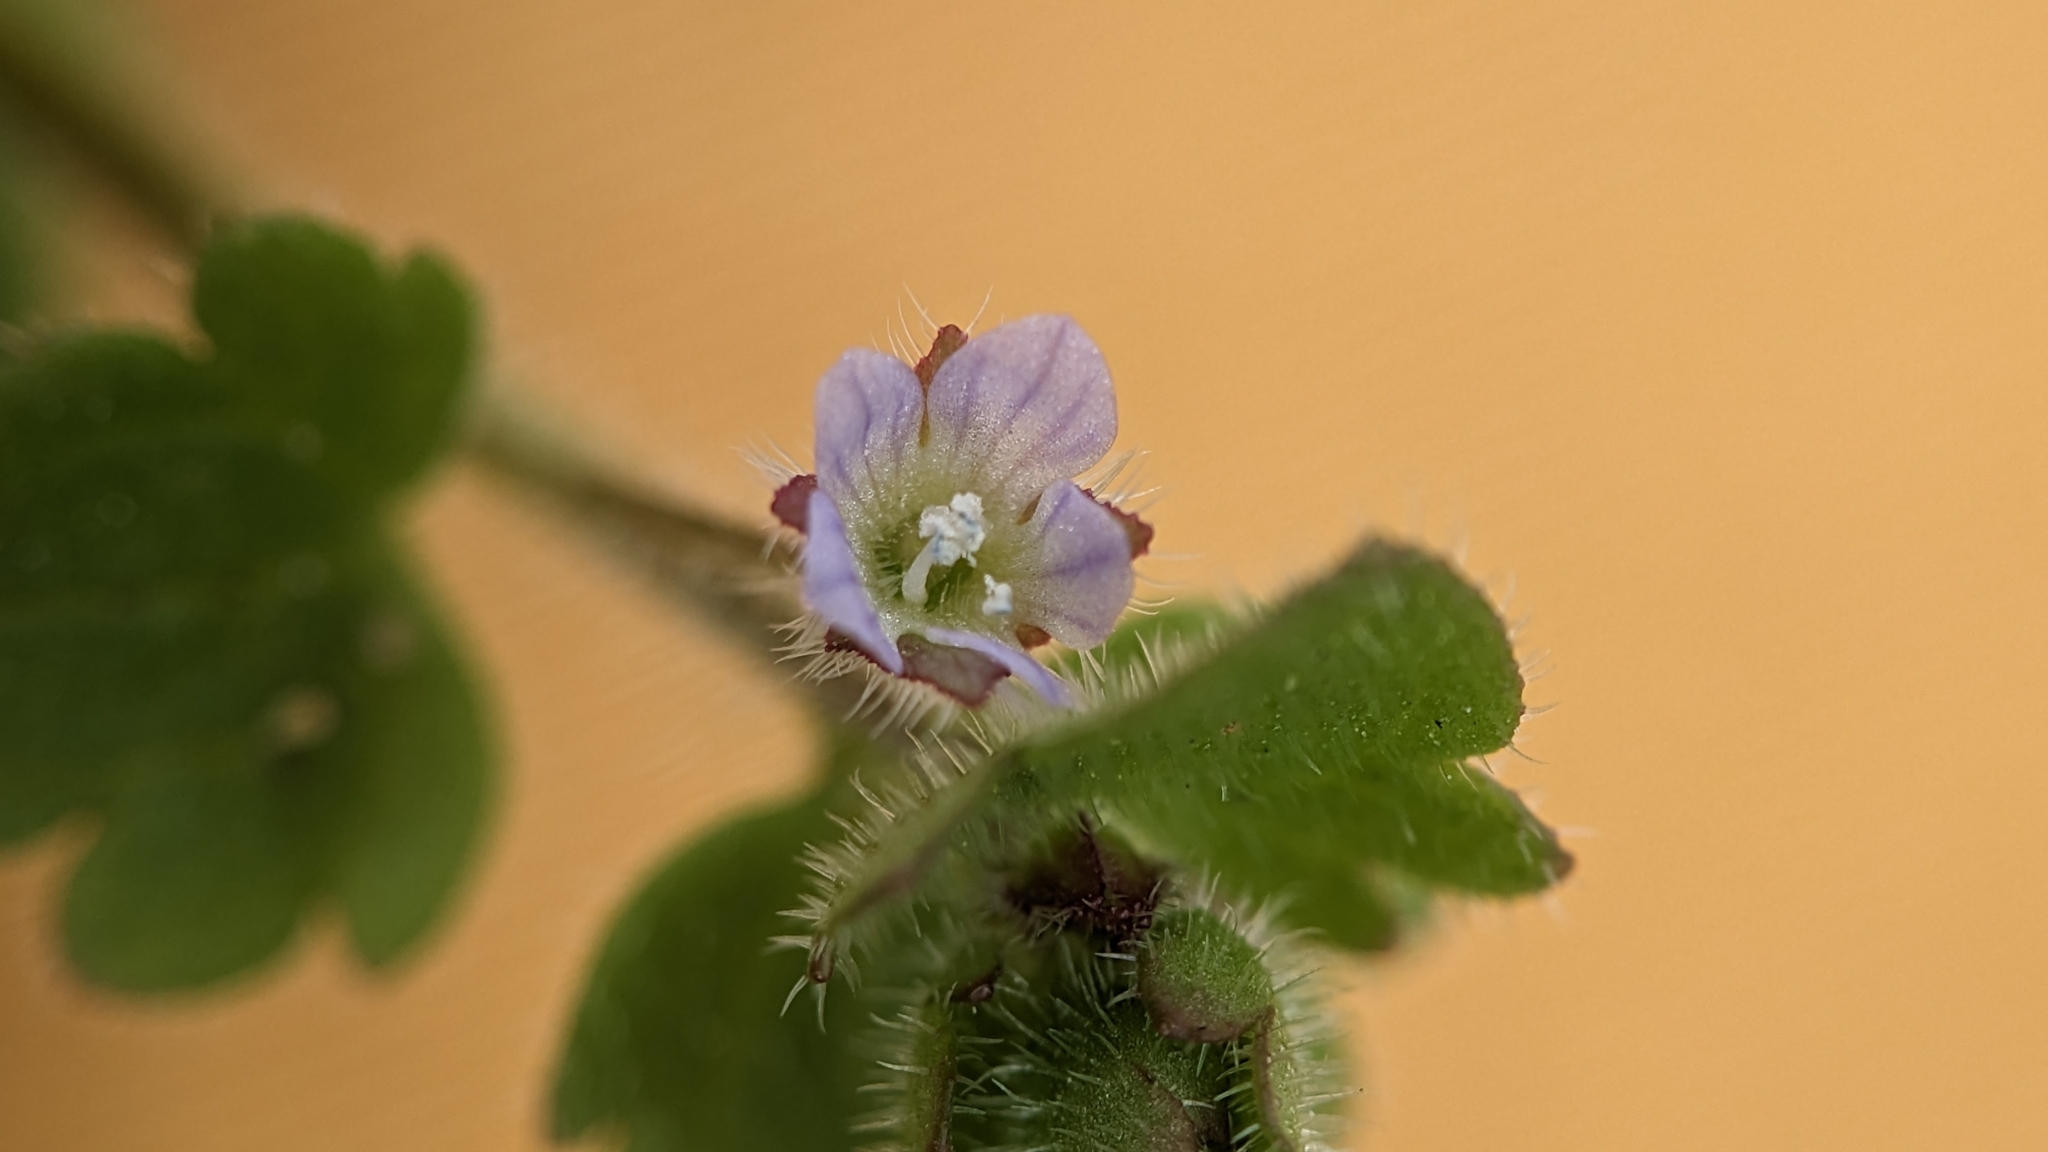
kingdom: Plantae
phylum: Tracheophyta
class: Magnoliopsida
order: Lamiales
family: Plantaginaceae
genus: Veronica
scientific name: Veronica sublobata
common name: False ivy-leaved speedwell
